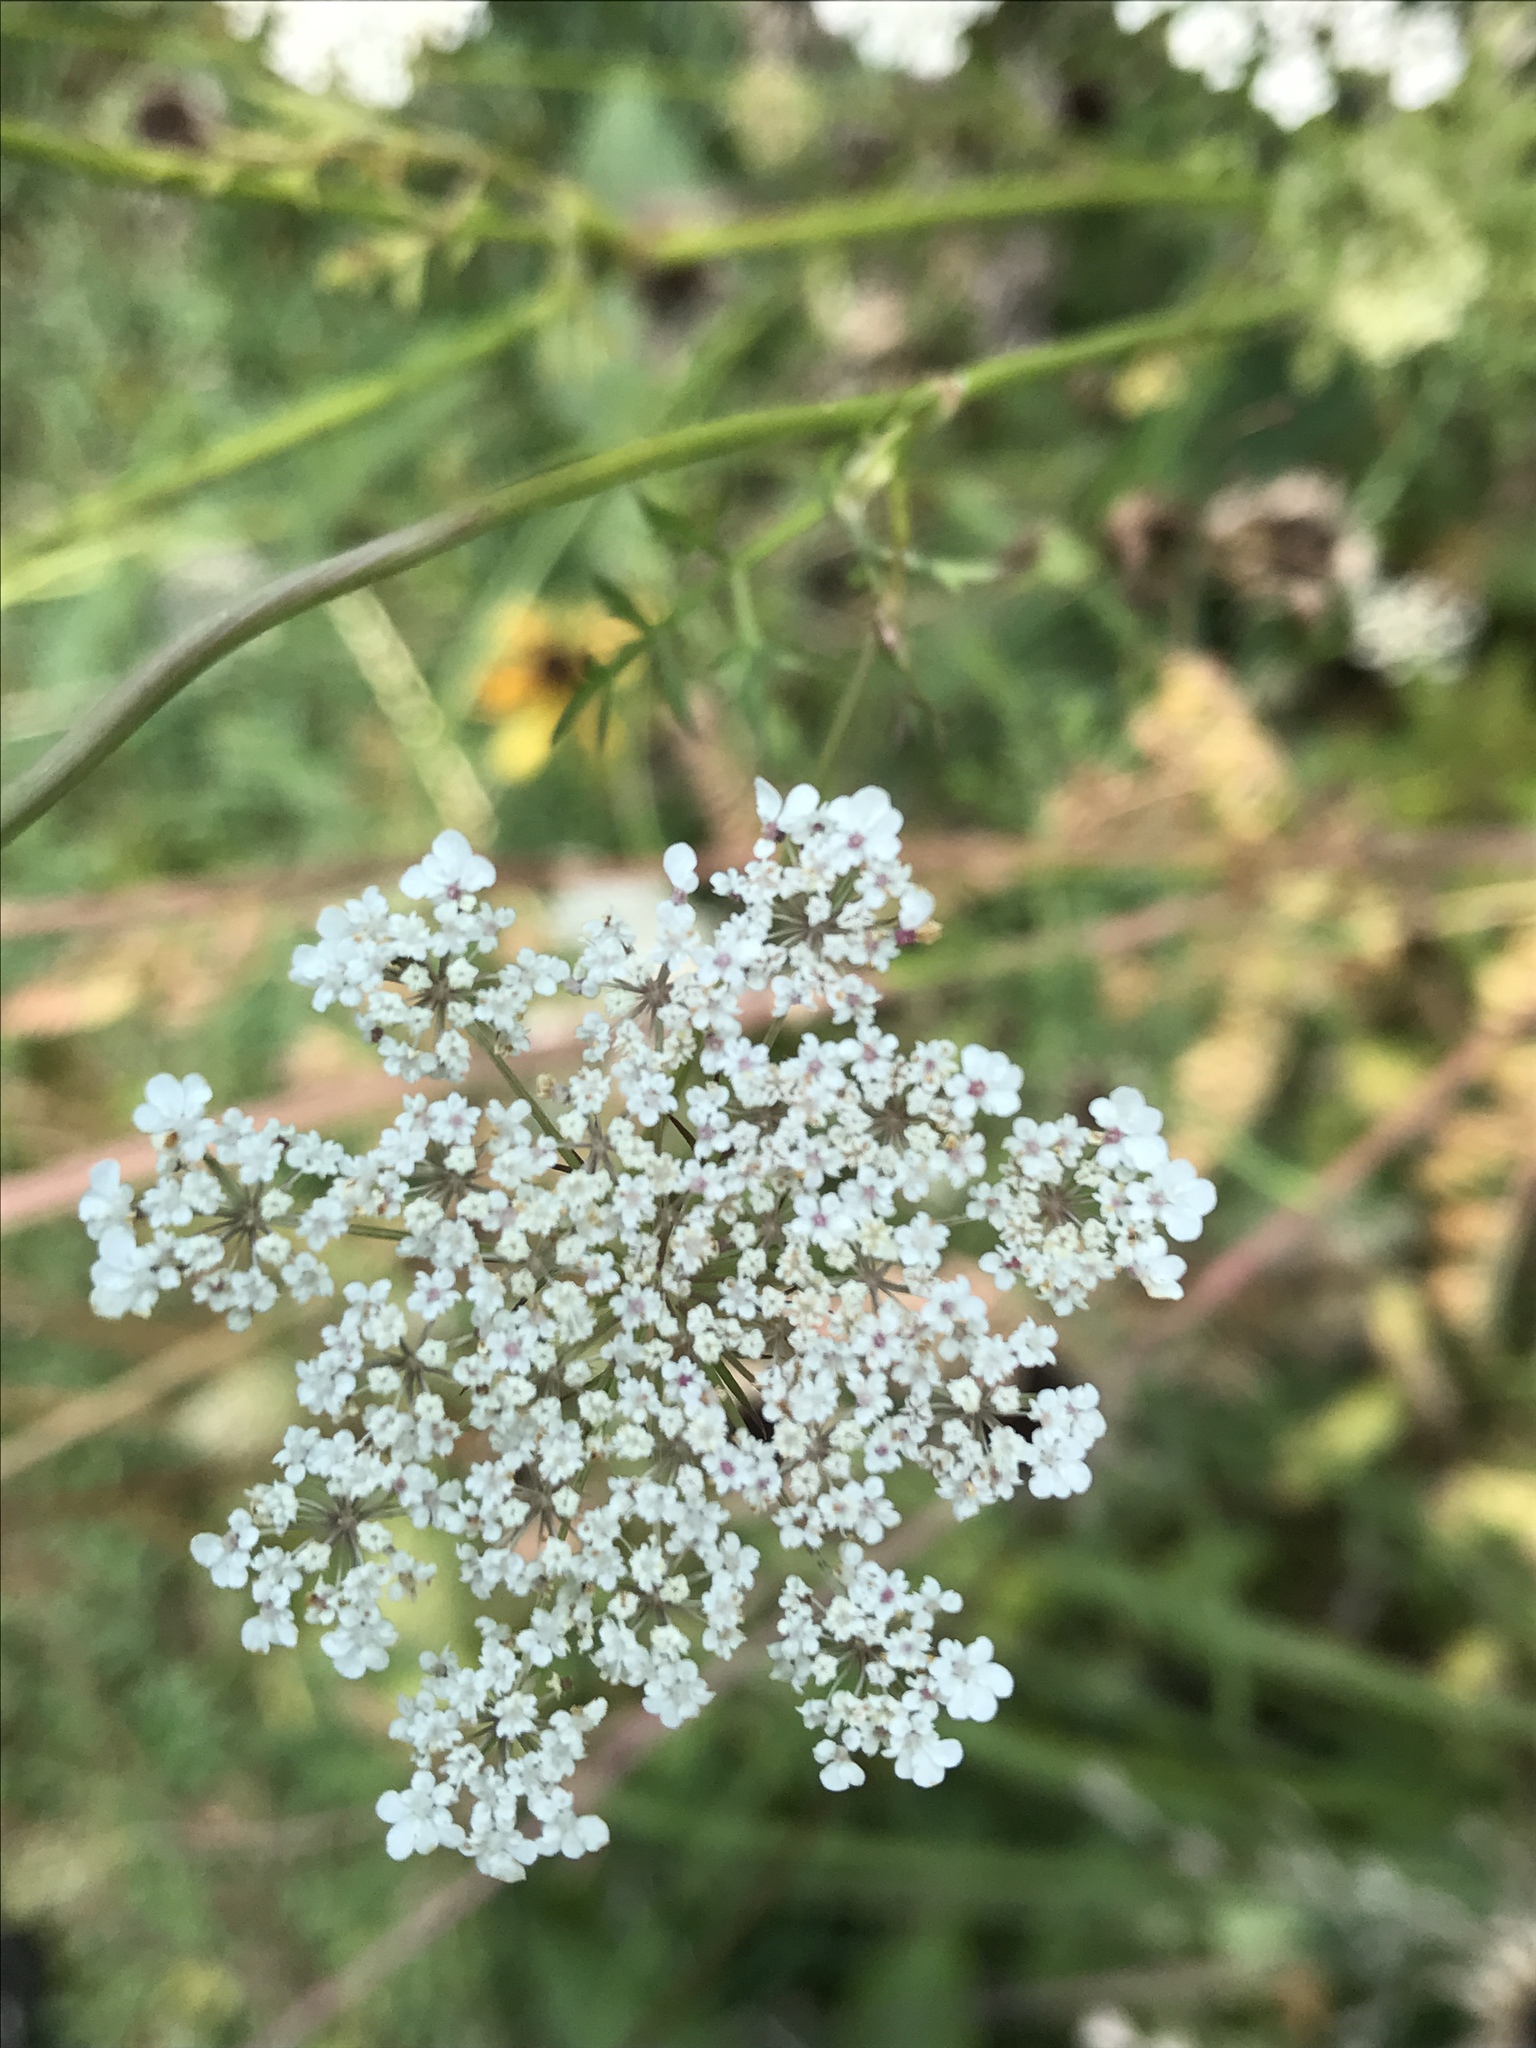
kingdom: Plantae
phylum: Tracheophyta
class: Magnoliopsida
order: Apiales
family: Apiaceae
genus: Daucus
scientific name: Daucus carota
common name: Wild carrot
